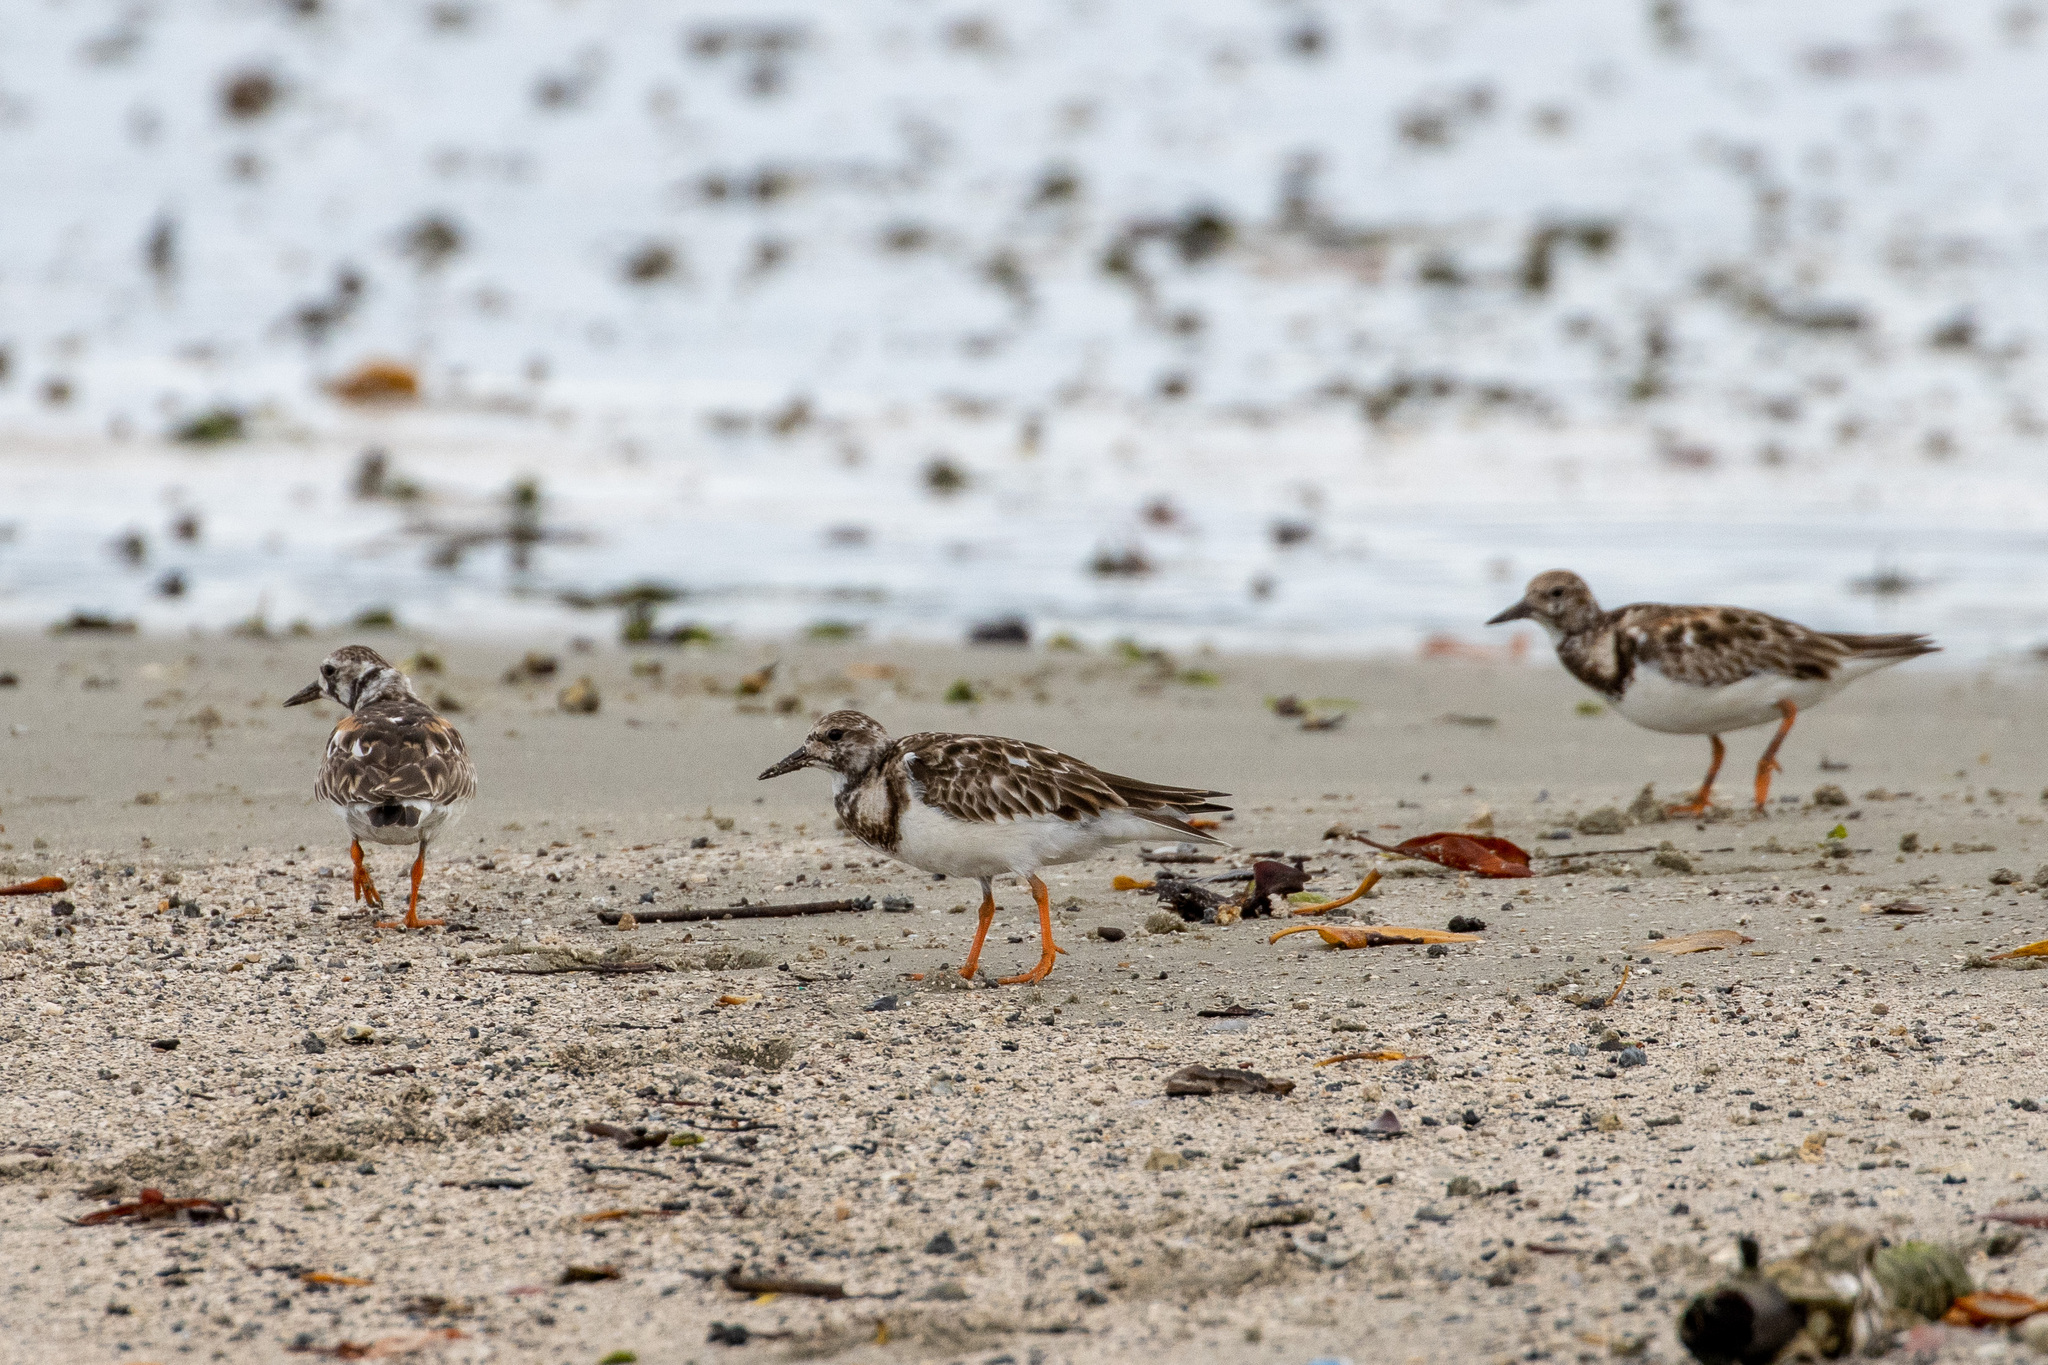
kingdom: Animalia
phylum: Chordata
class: Aves
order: Charadriiformes
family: Scolopacidae
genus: Arenaria
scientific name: Arenaria interpres
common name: Ruddy turnstone
